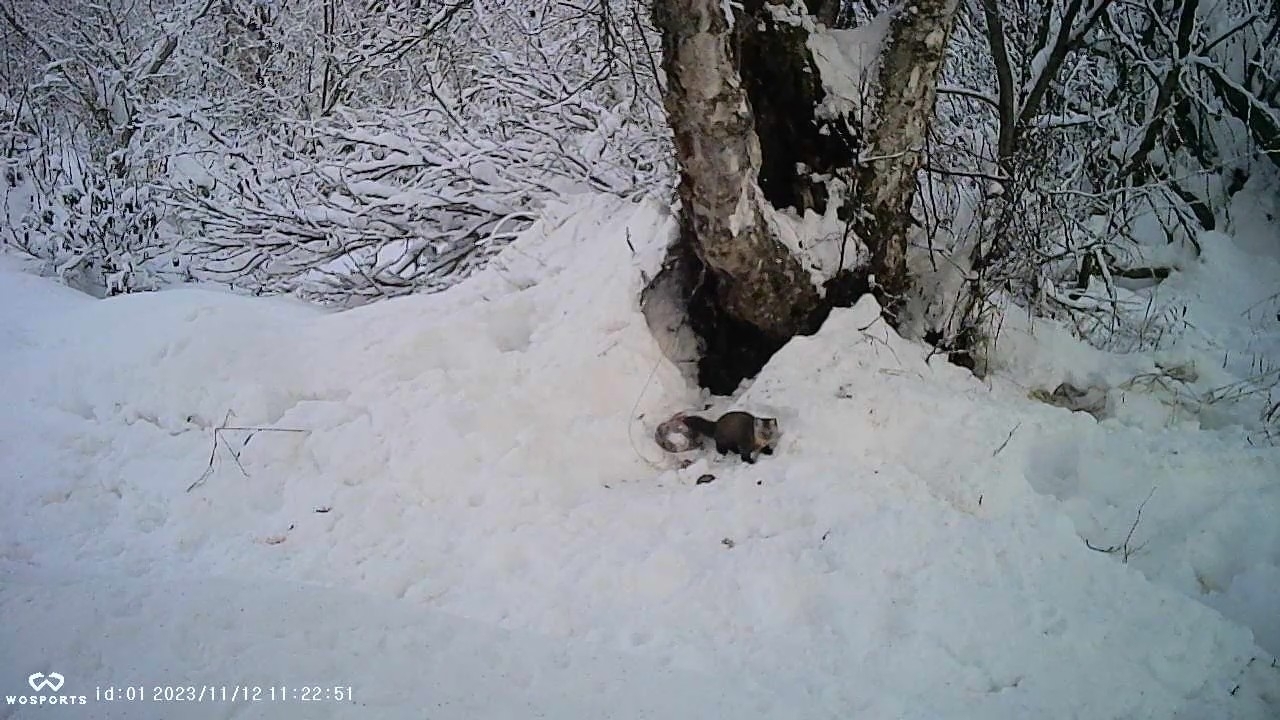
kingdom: Animalia
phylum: Chordata
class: Mammalia
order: Carnivora
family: Mustelidae
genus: Martes
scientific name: Martes americana
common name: American marten
